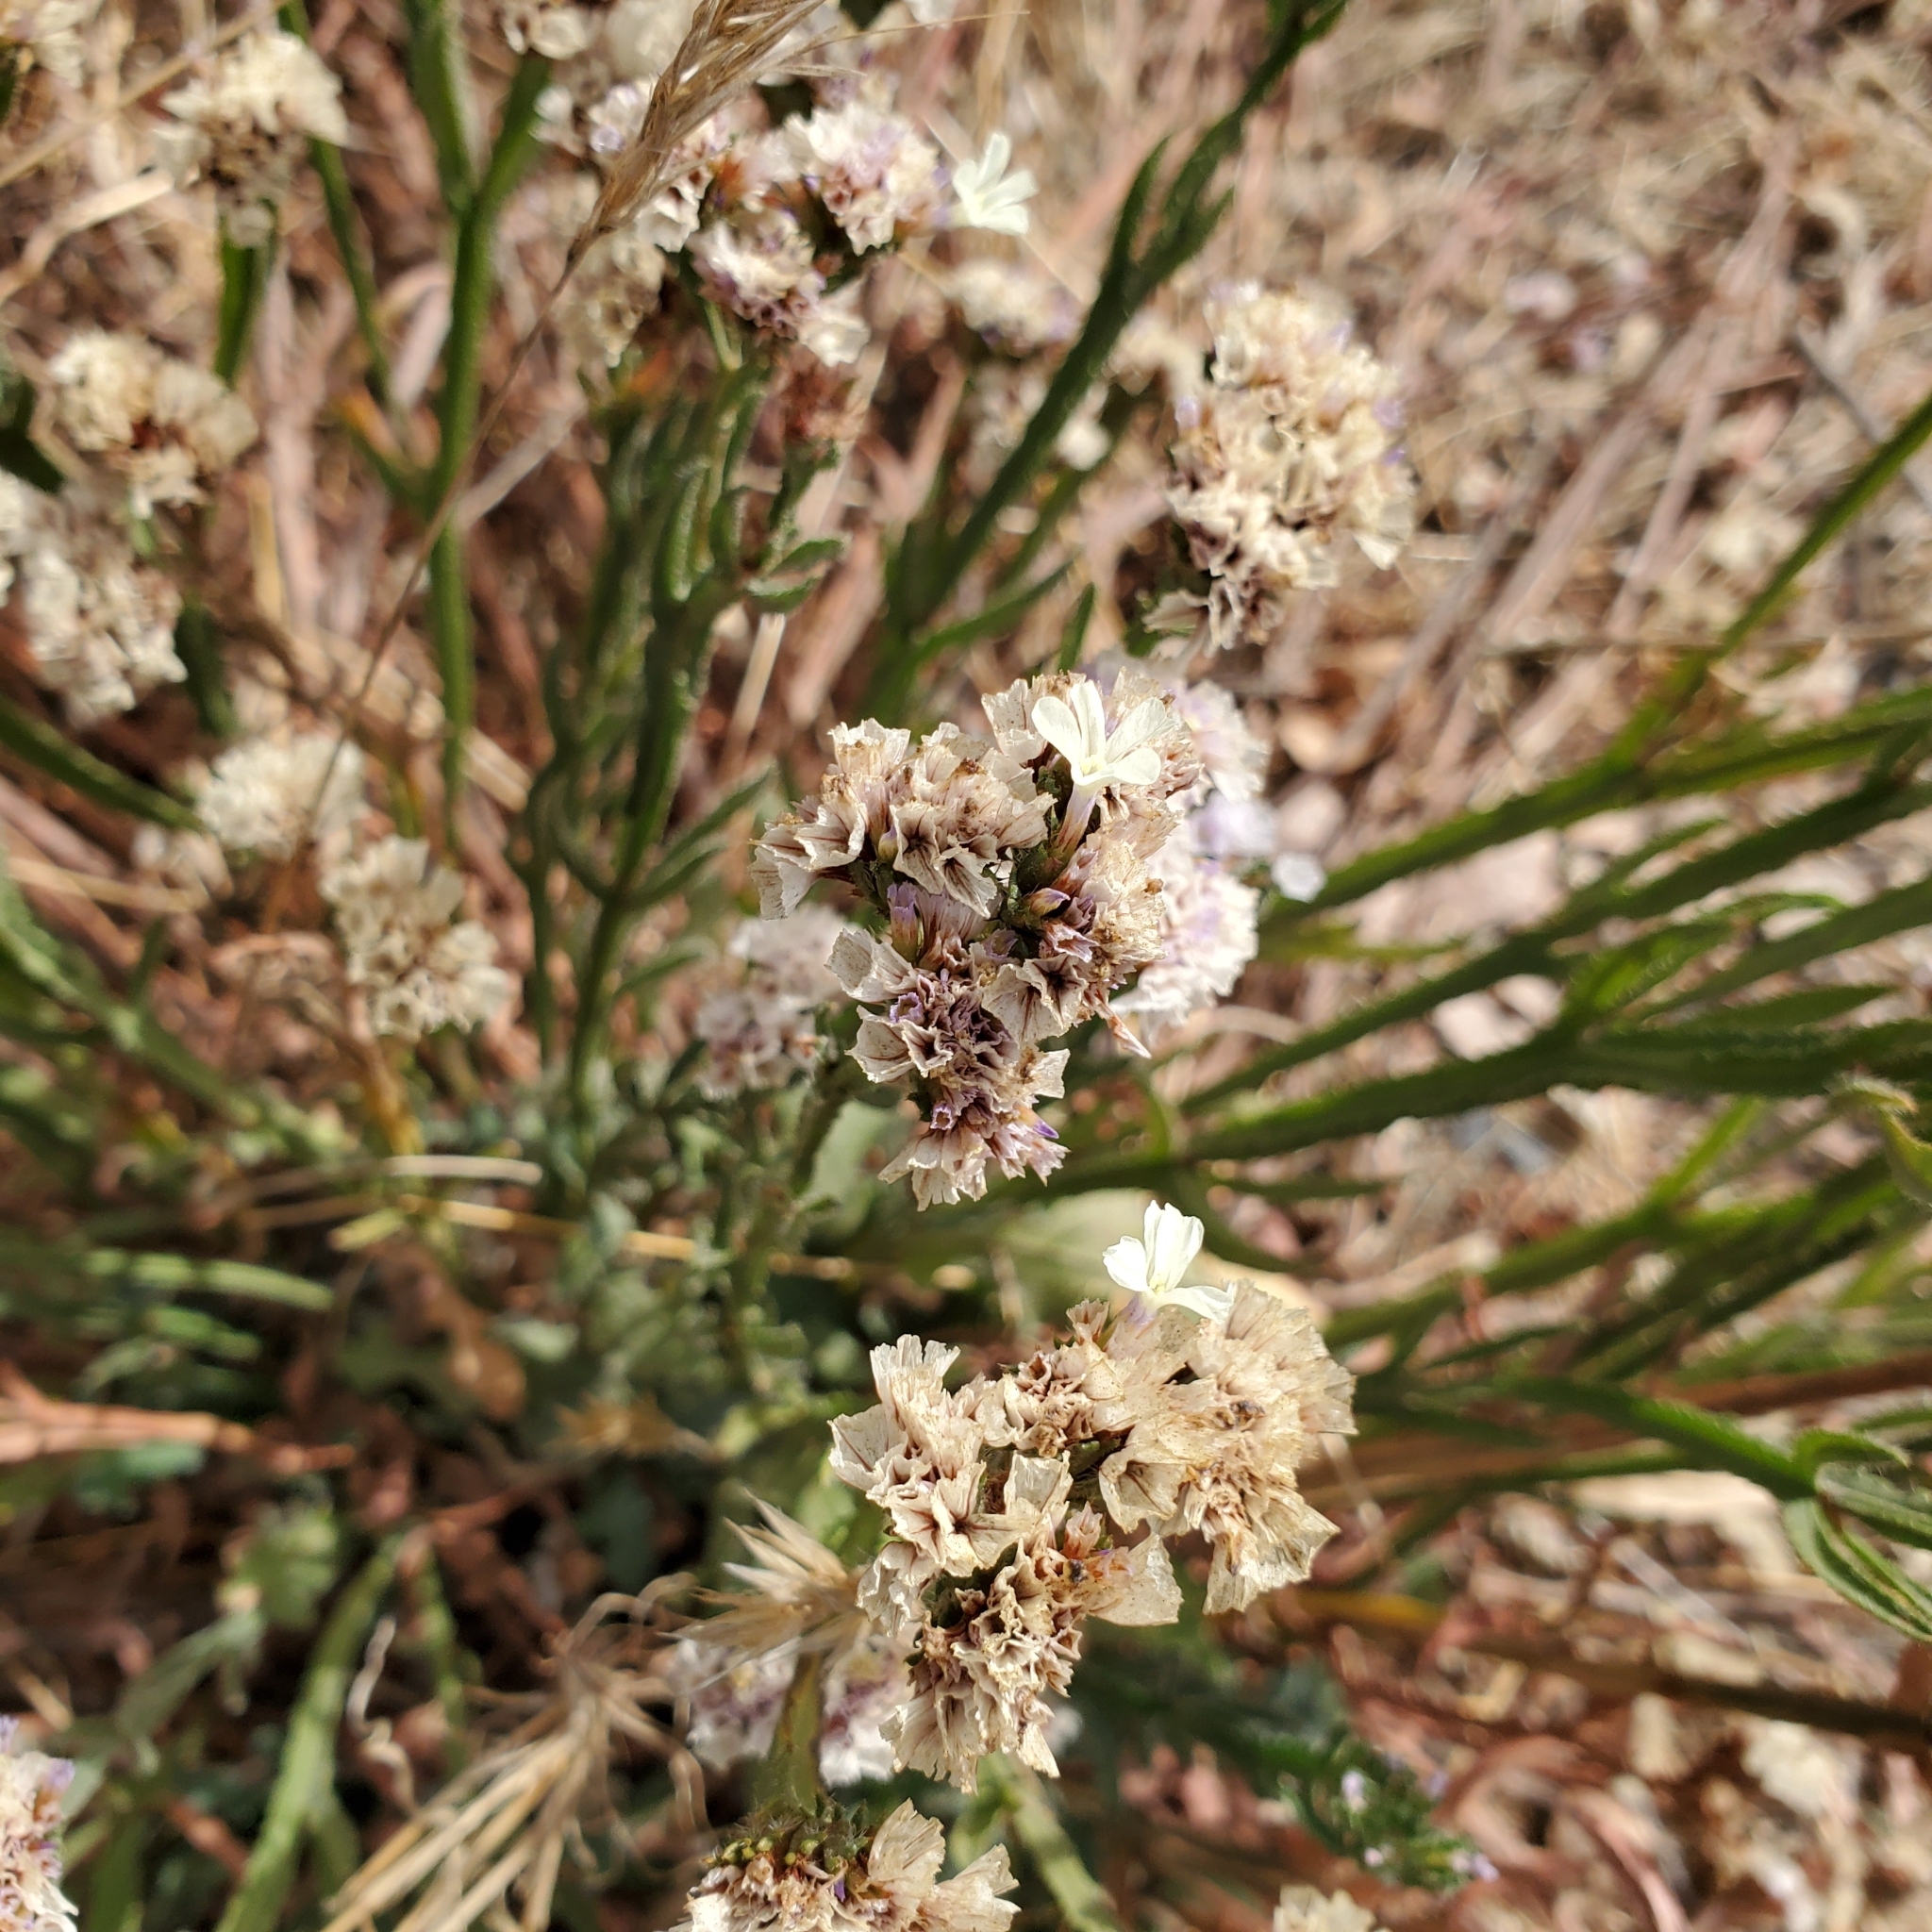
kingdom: Plantae
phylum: Tracheophyta
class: Magnoliopsida
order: Caryophyllales
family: Plumbaginaceae
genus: Limonium
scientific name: Limonium sinuatum
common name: Statice
